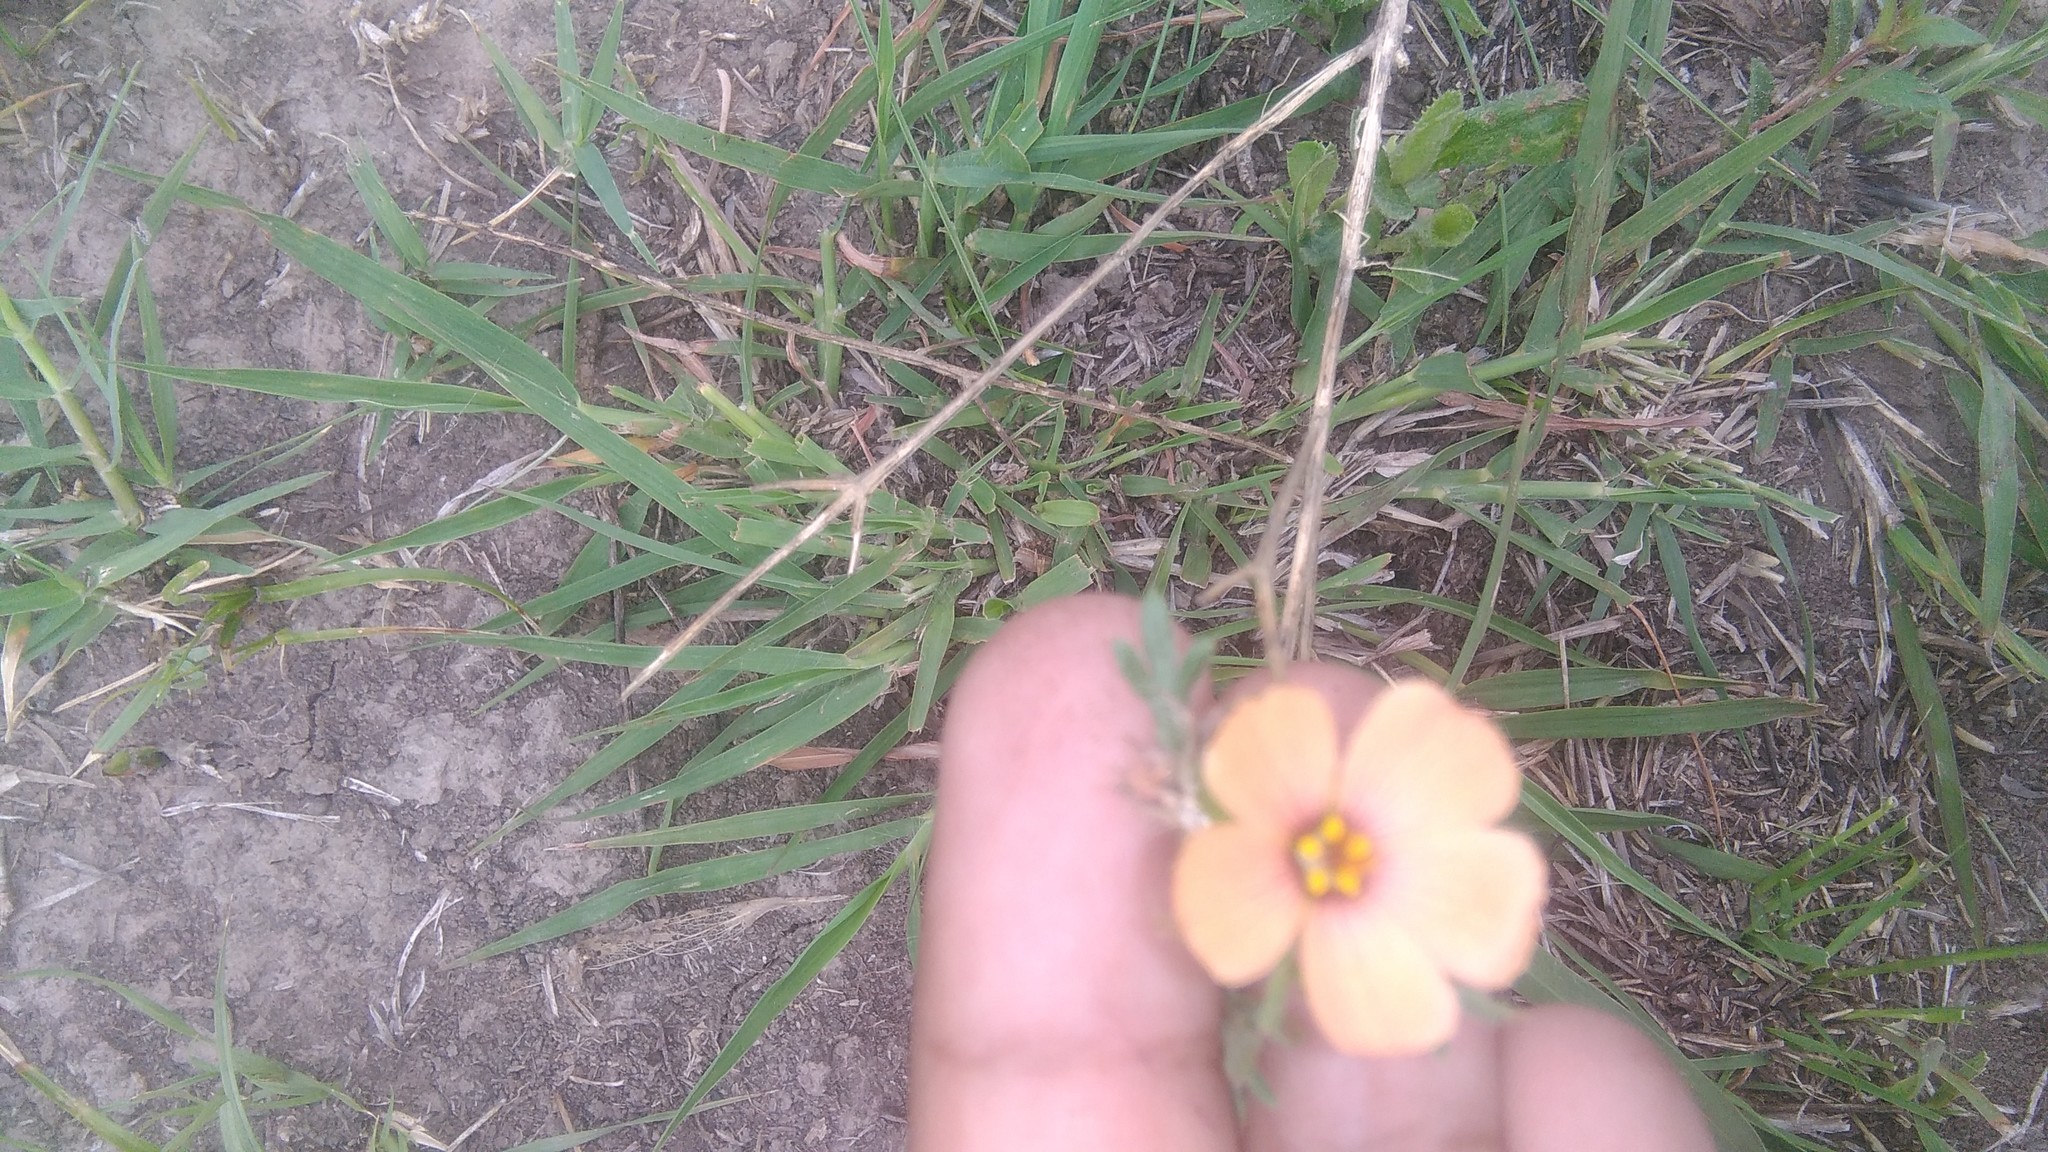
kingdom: Plantae
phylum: Tracheophyta
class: Magnoliopsida
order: Malpighiales
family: Turneraceae
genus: Turnera
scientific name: Turnera sidoides
